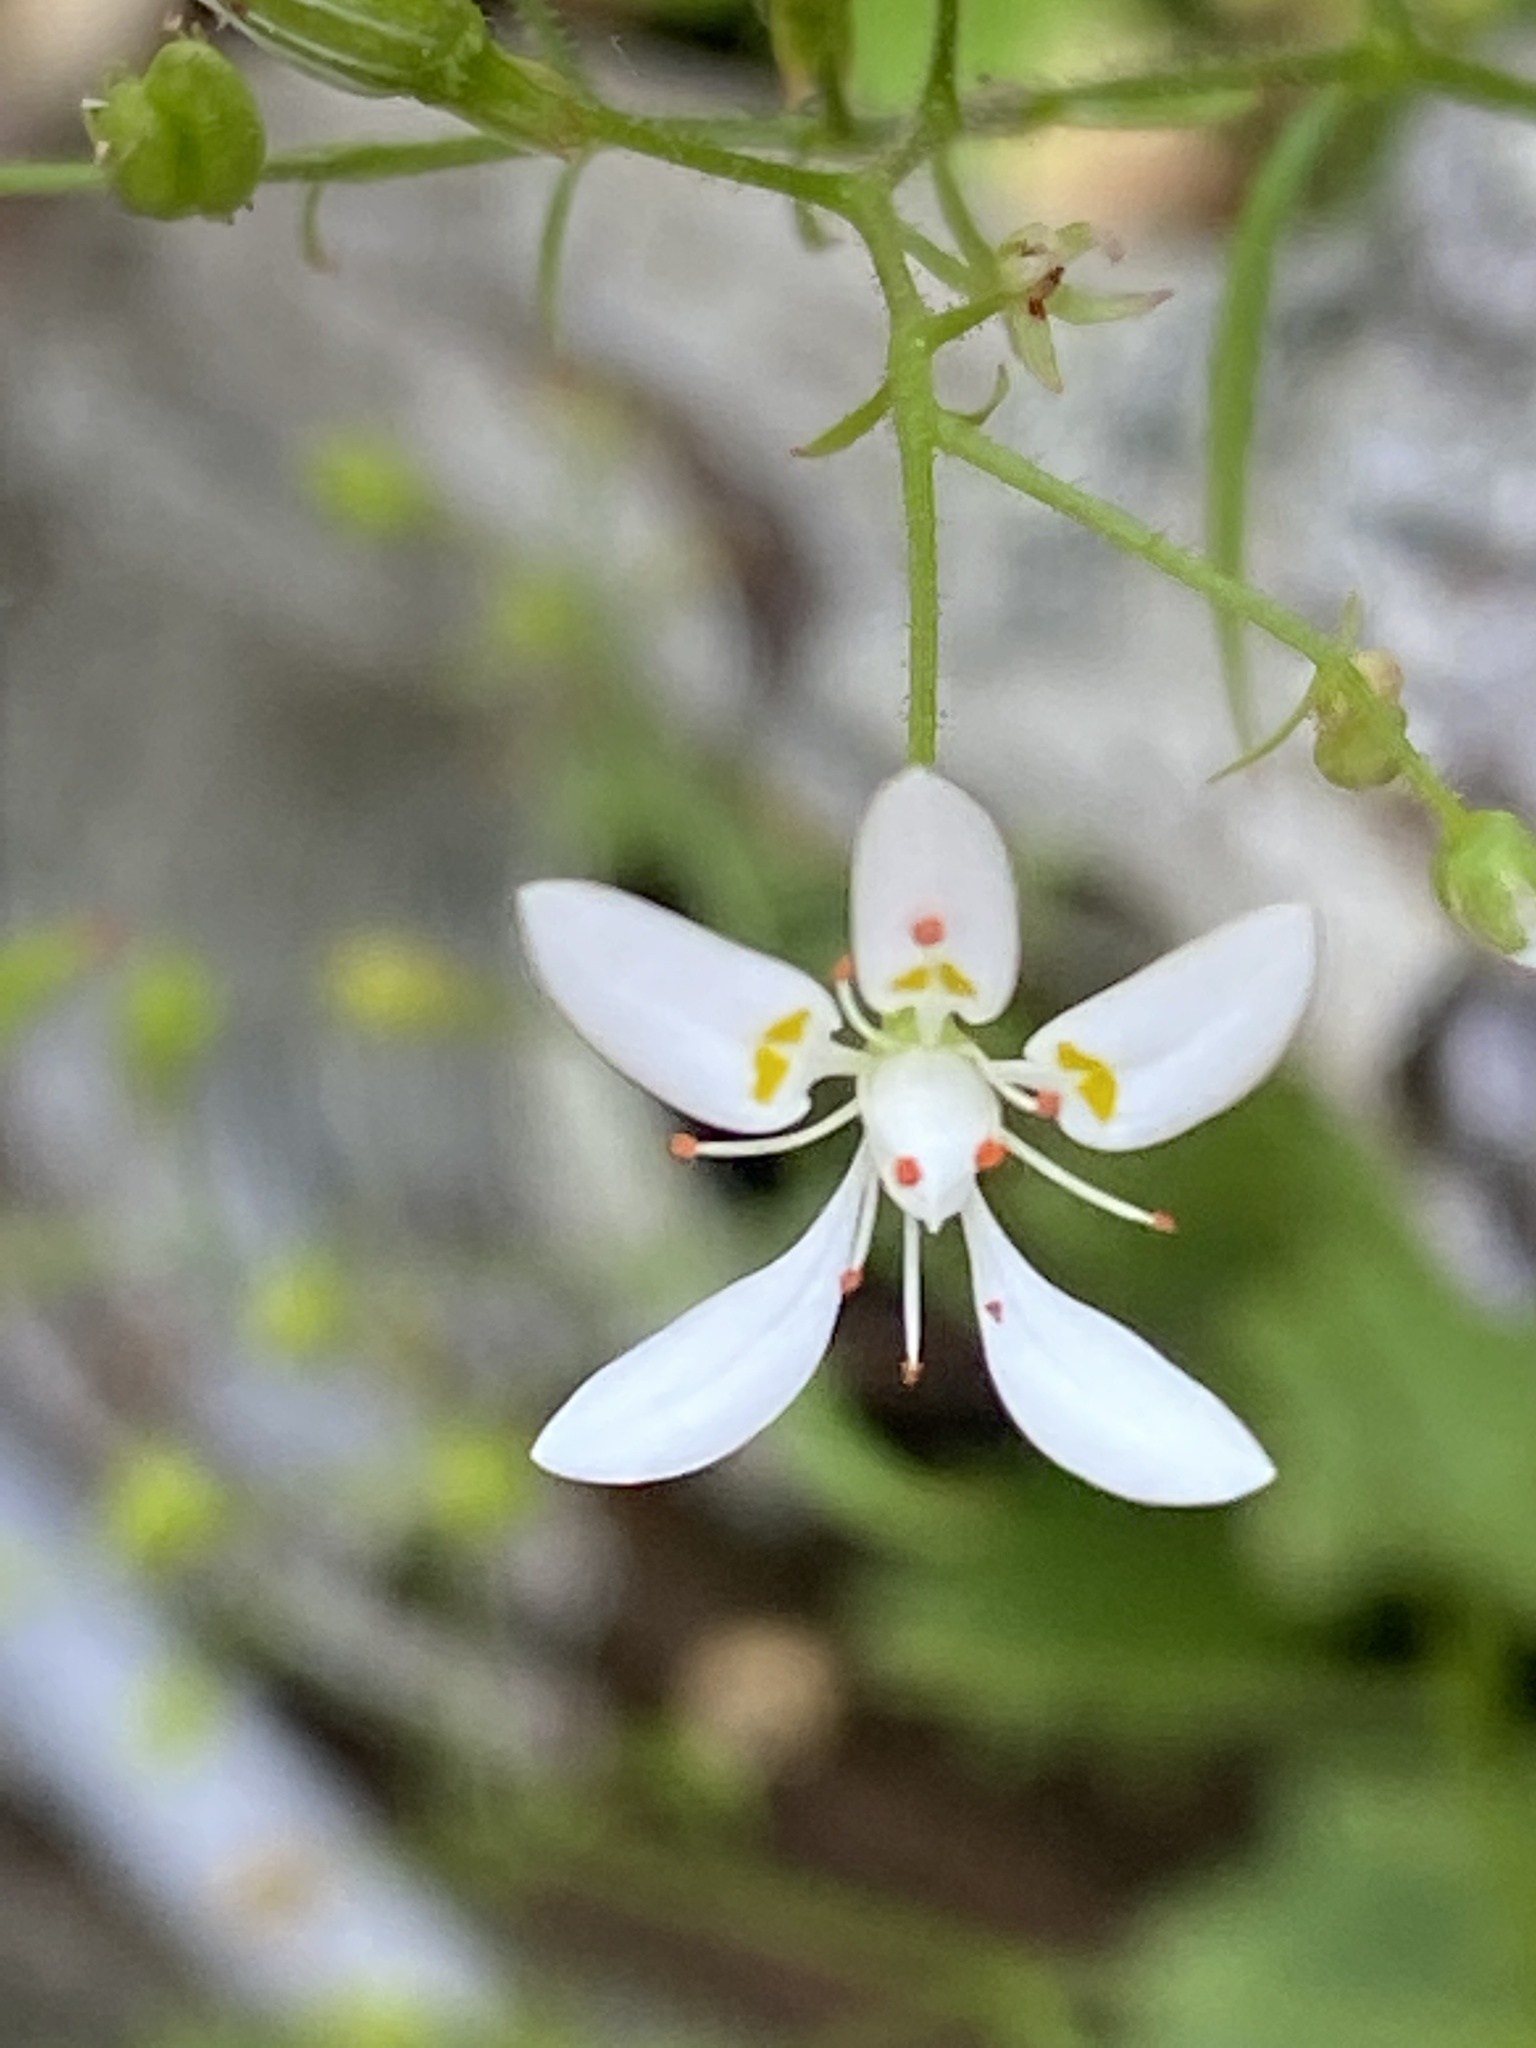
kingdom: Plantae
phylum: Tracheophyta
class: Magnoliopsida
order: Saxifragales
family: Saxifragaceae
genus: Micranthes
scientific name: Micranthes petiolaris
